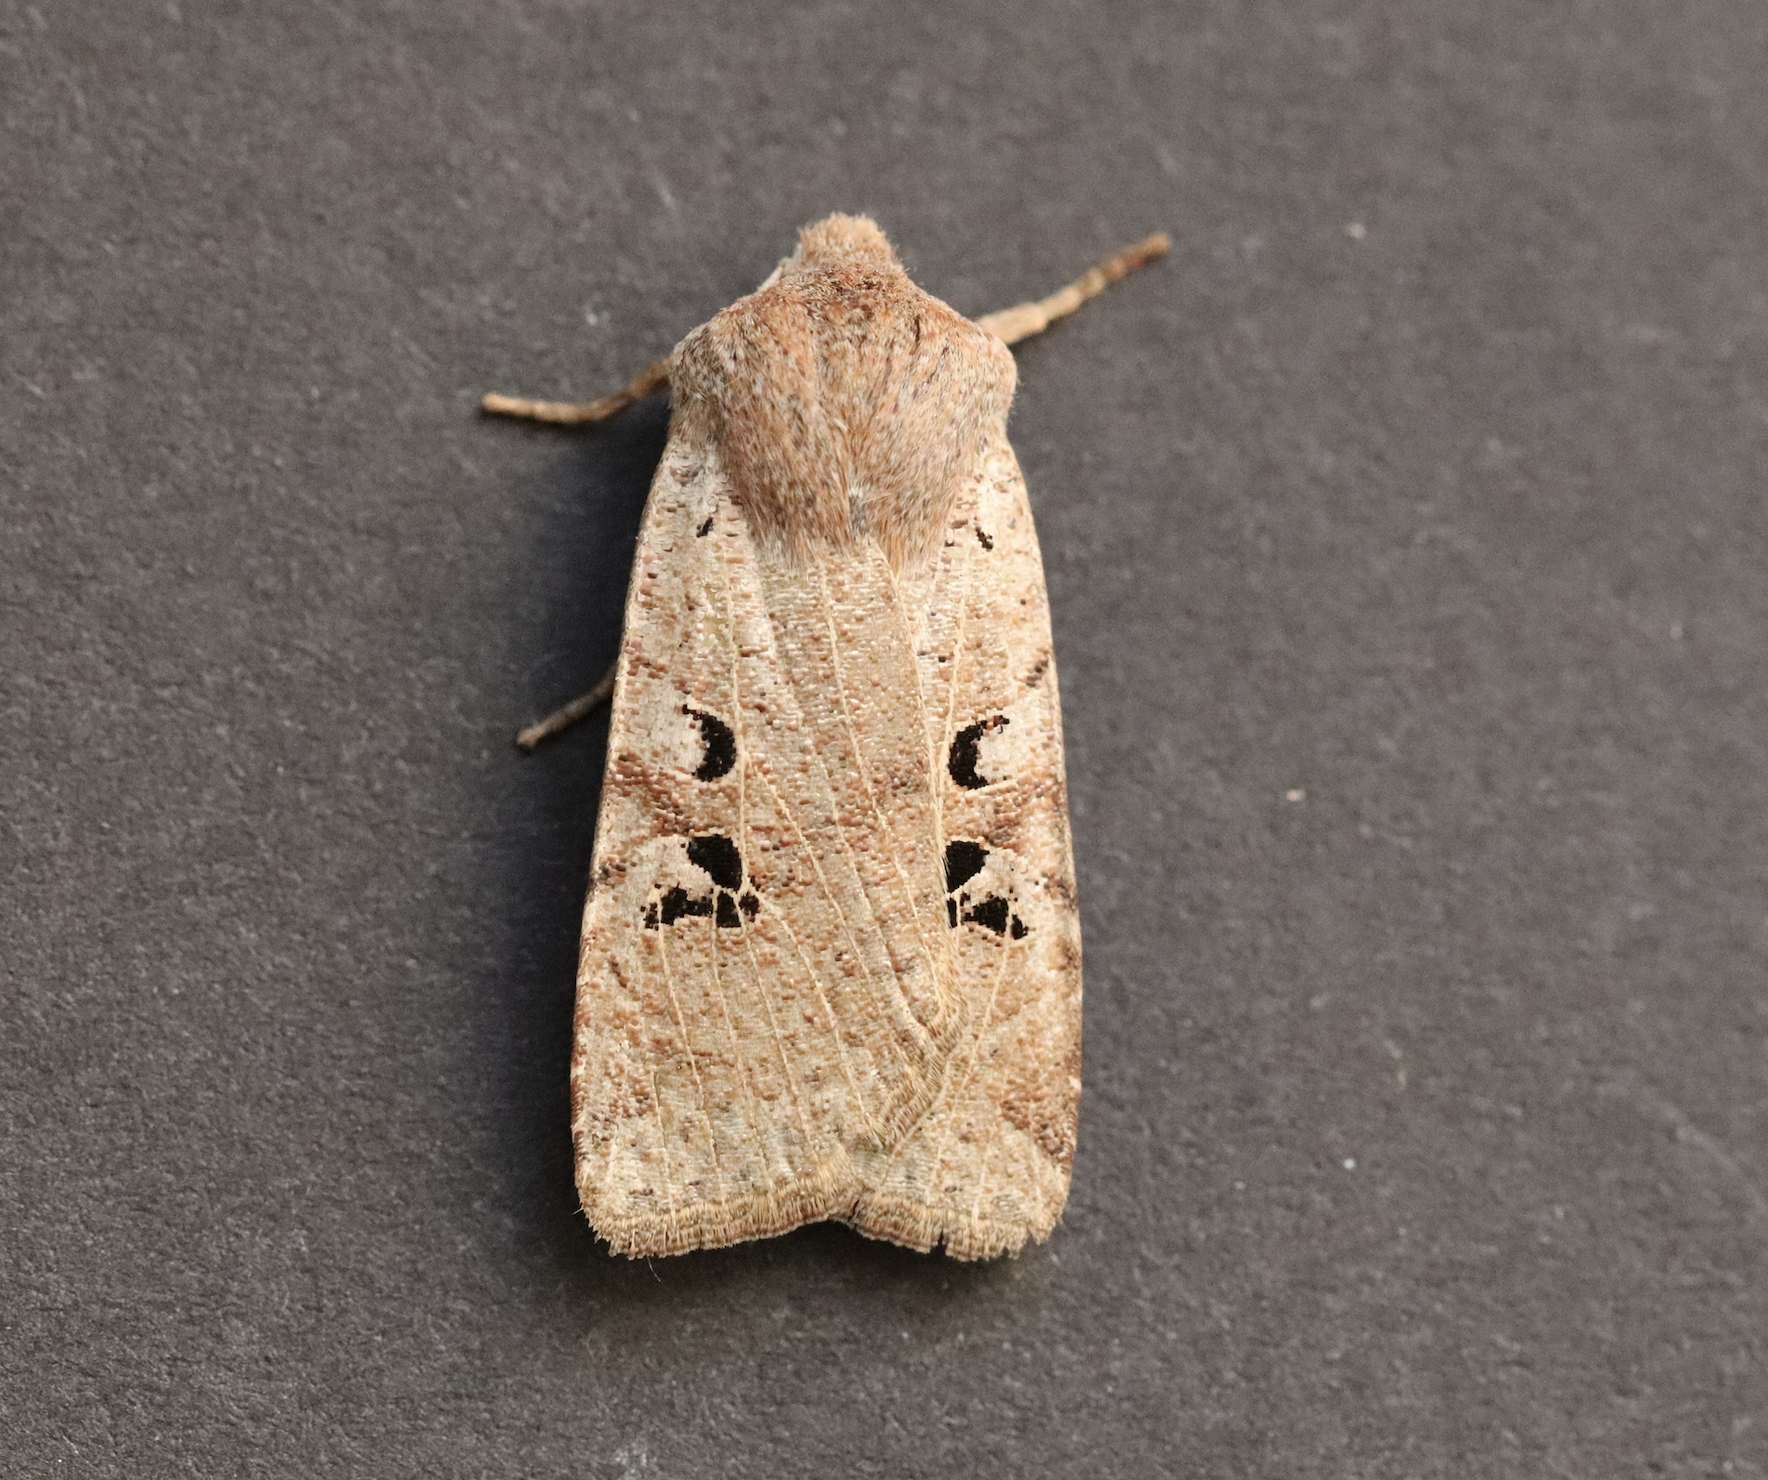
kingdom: Animalia
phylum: Arthropoda
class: Insecta
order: Lepidoptera
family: Noctuidae
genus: Conistra
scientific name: Conistra rubiginosa
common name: Black-spotted chestnut
